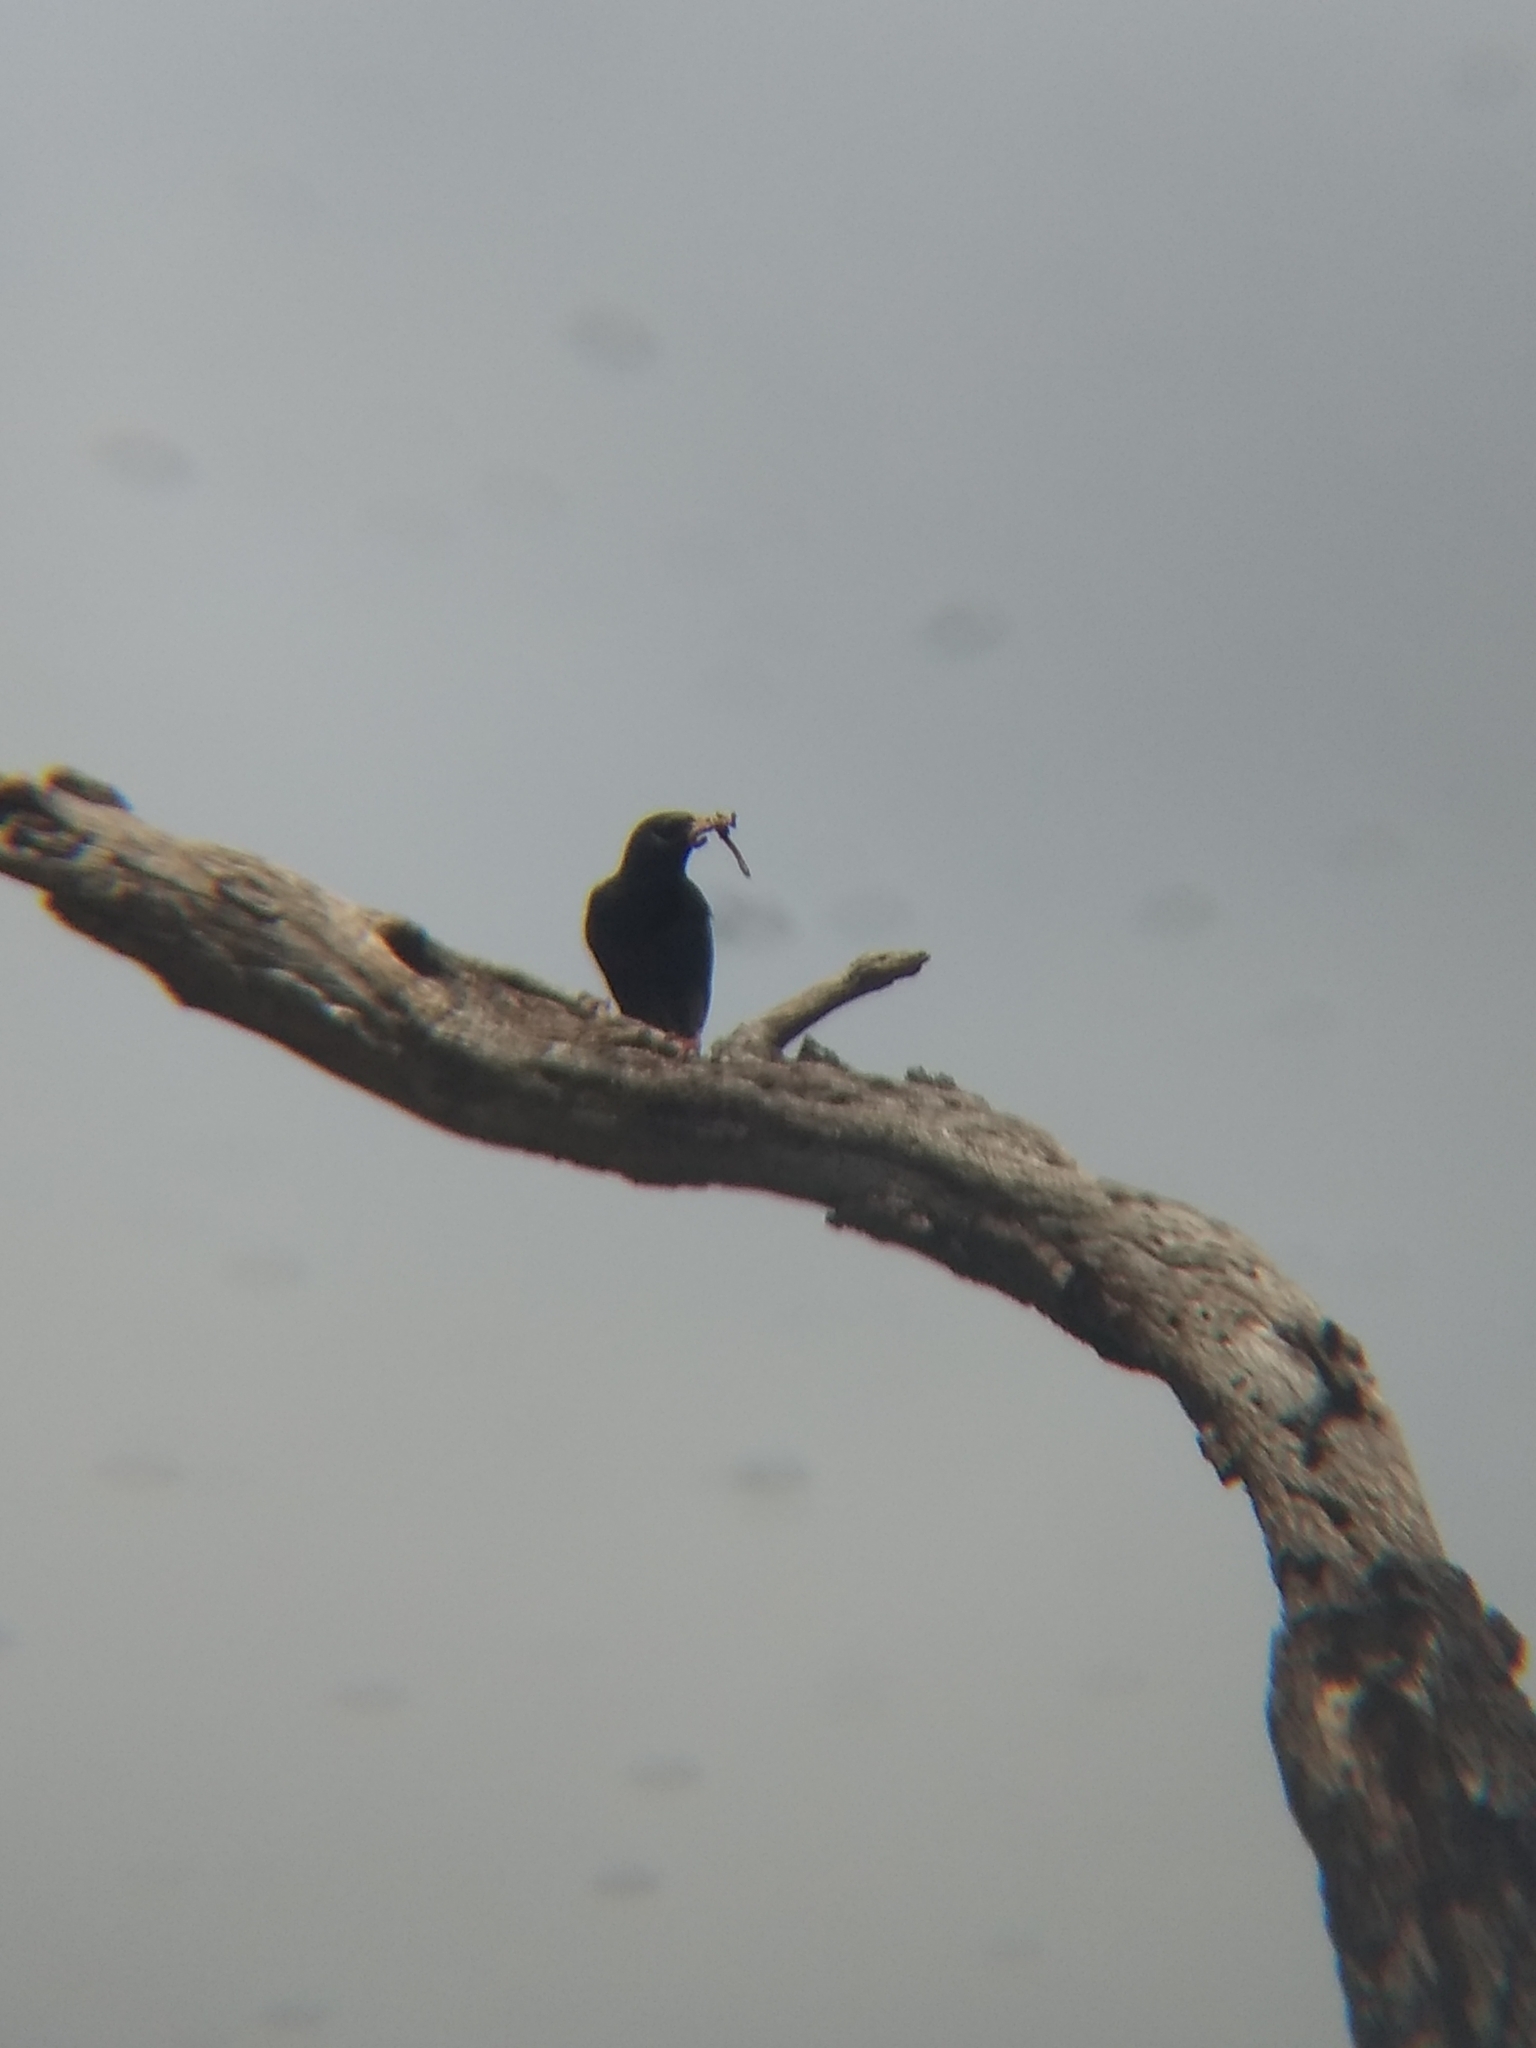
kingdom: Animalia
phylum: Chordata
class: Aves
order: Passeriformes
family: Sturnidae
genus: Sturnus
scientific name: Sturnus vulgaris
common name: Common starling
